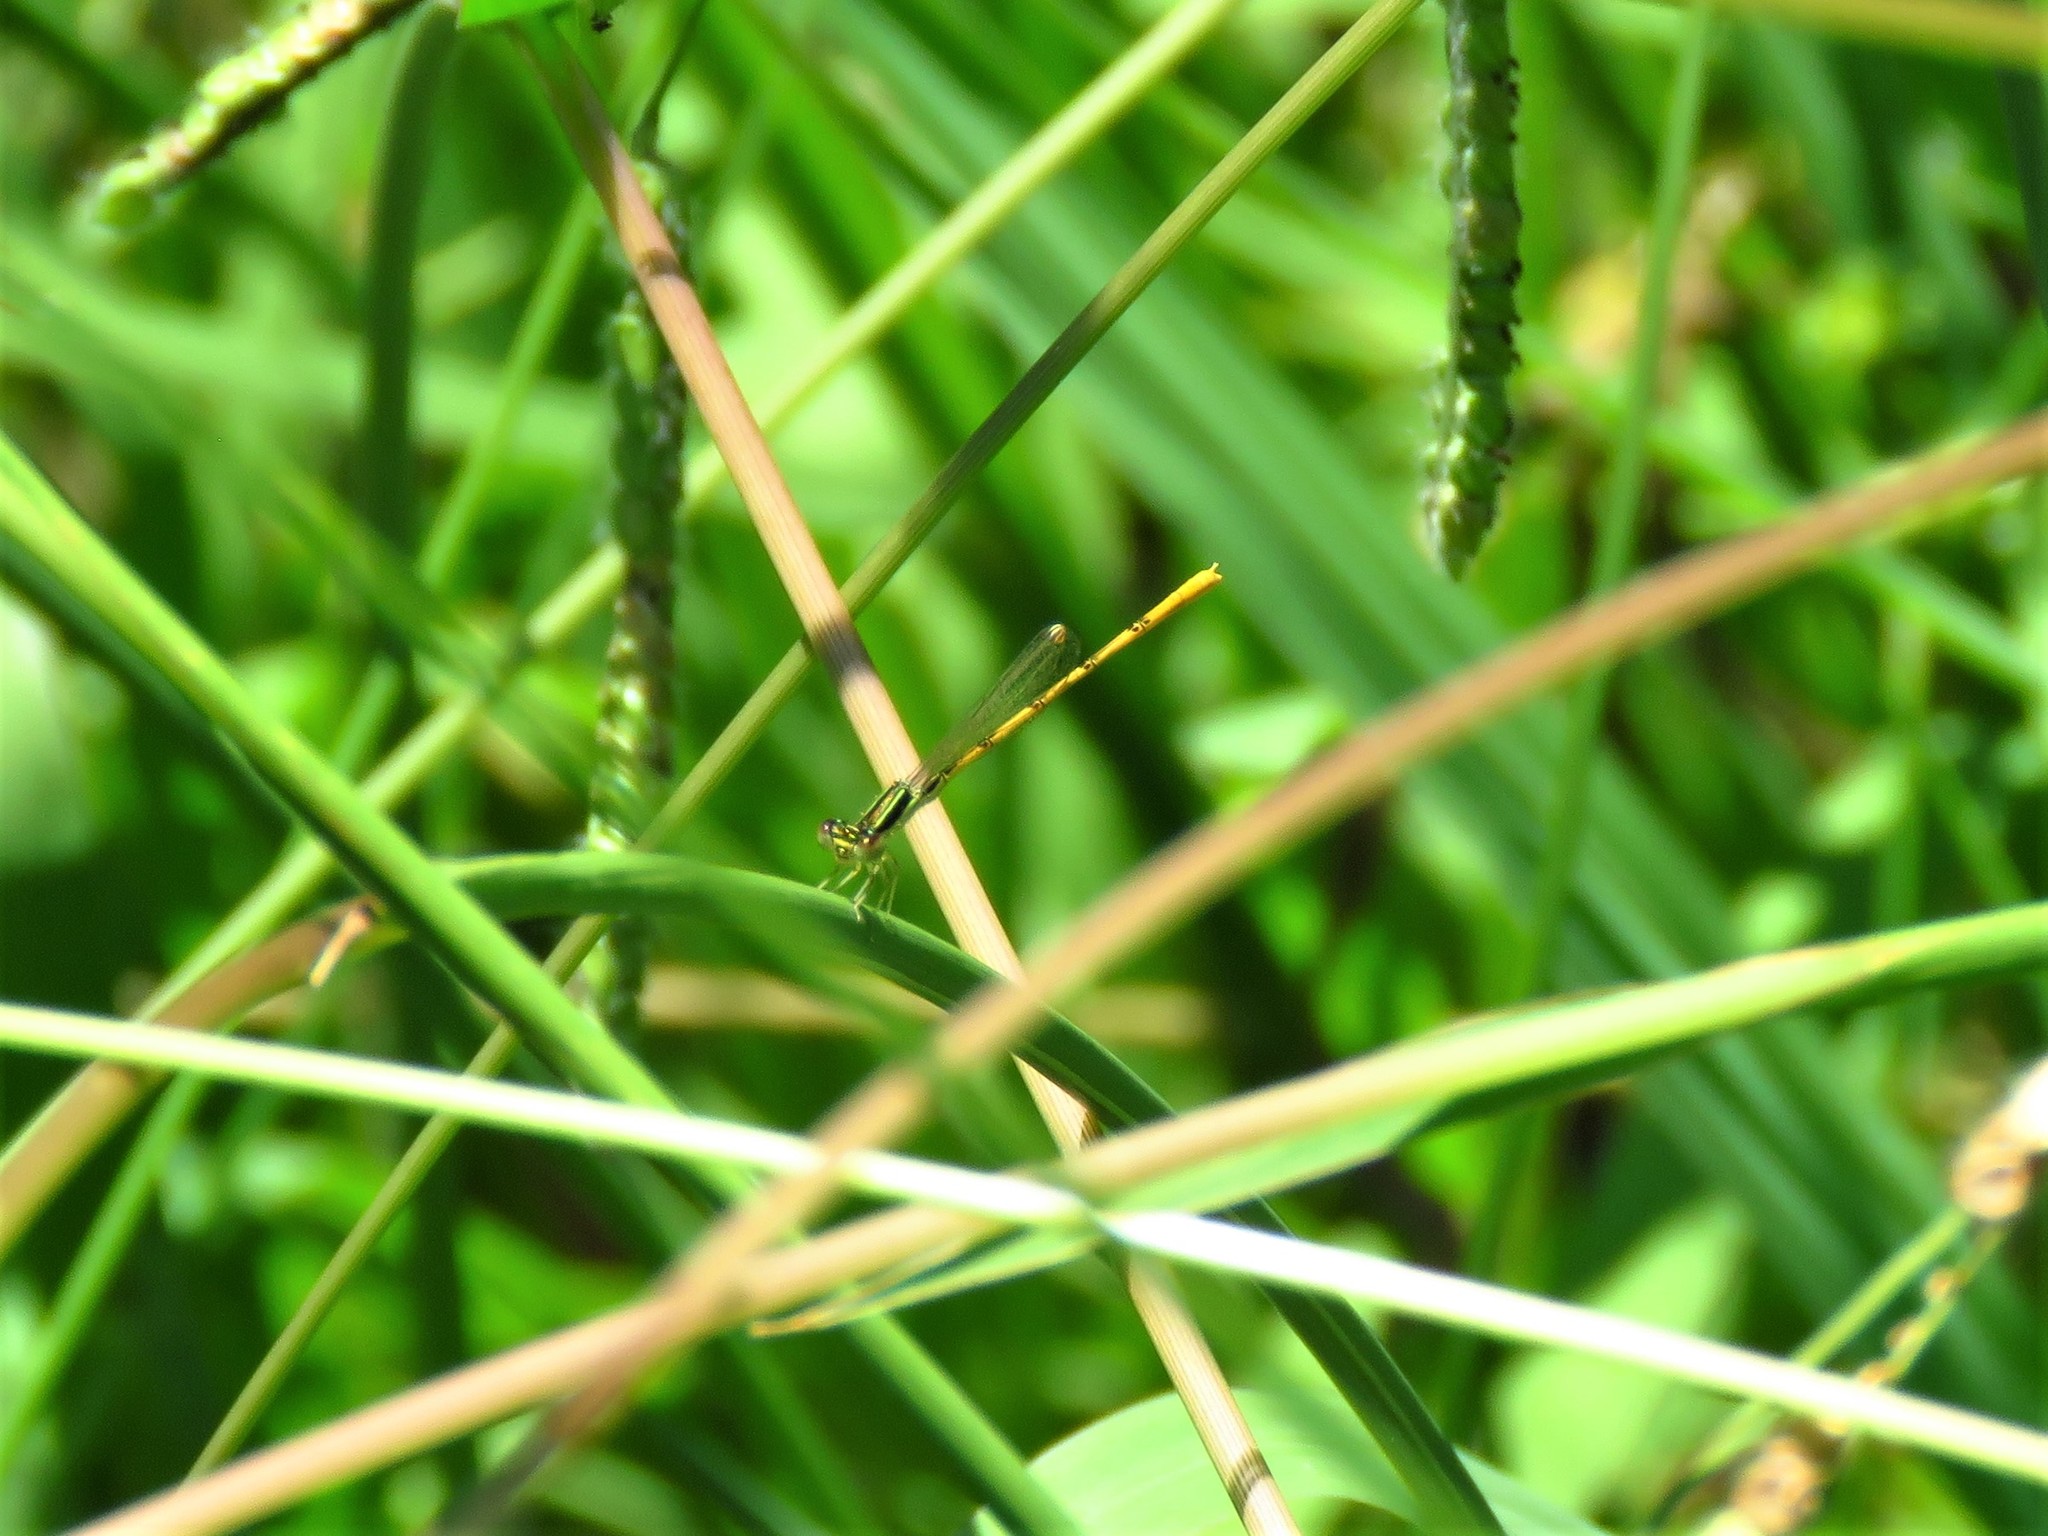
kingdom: Animalia
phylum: Arthropoda
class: Insecta
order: Odonata
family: Coenagrionidae
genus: Ischnura
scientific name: Ischnura hastata
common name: Citrine forktail
